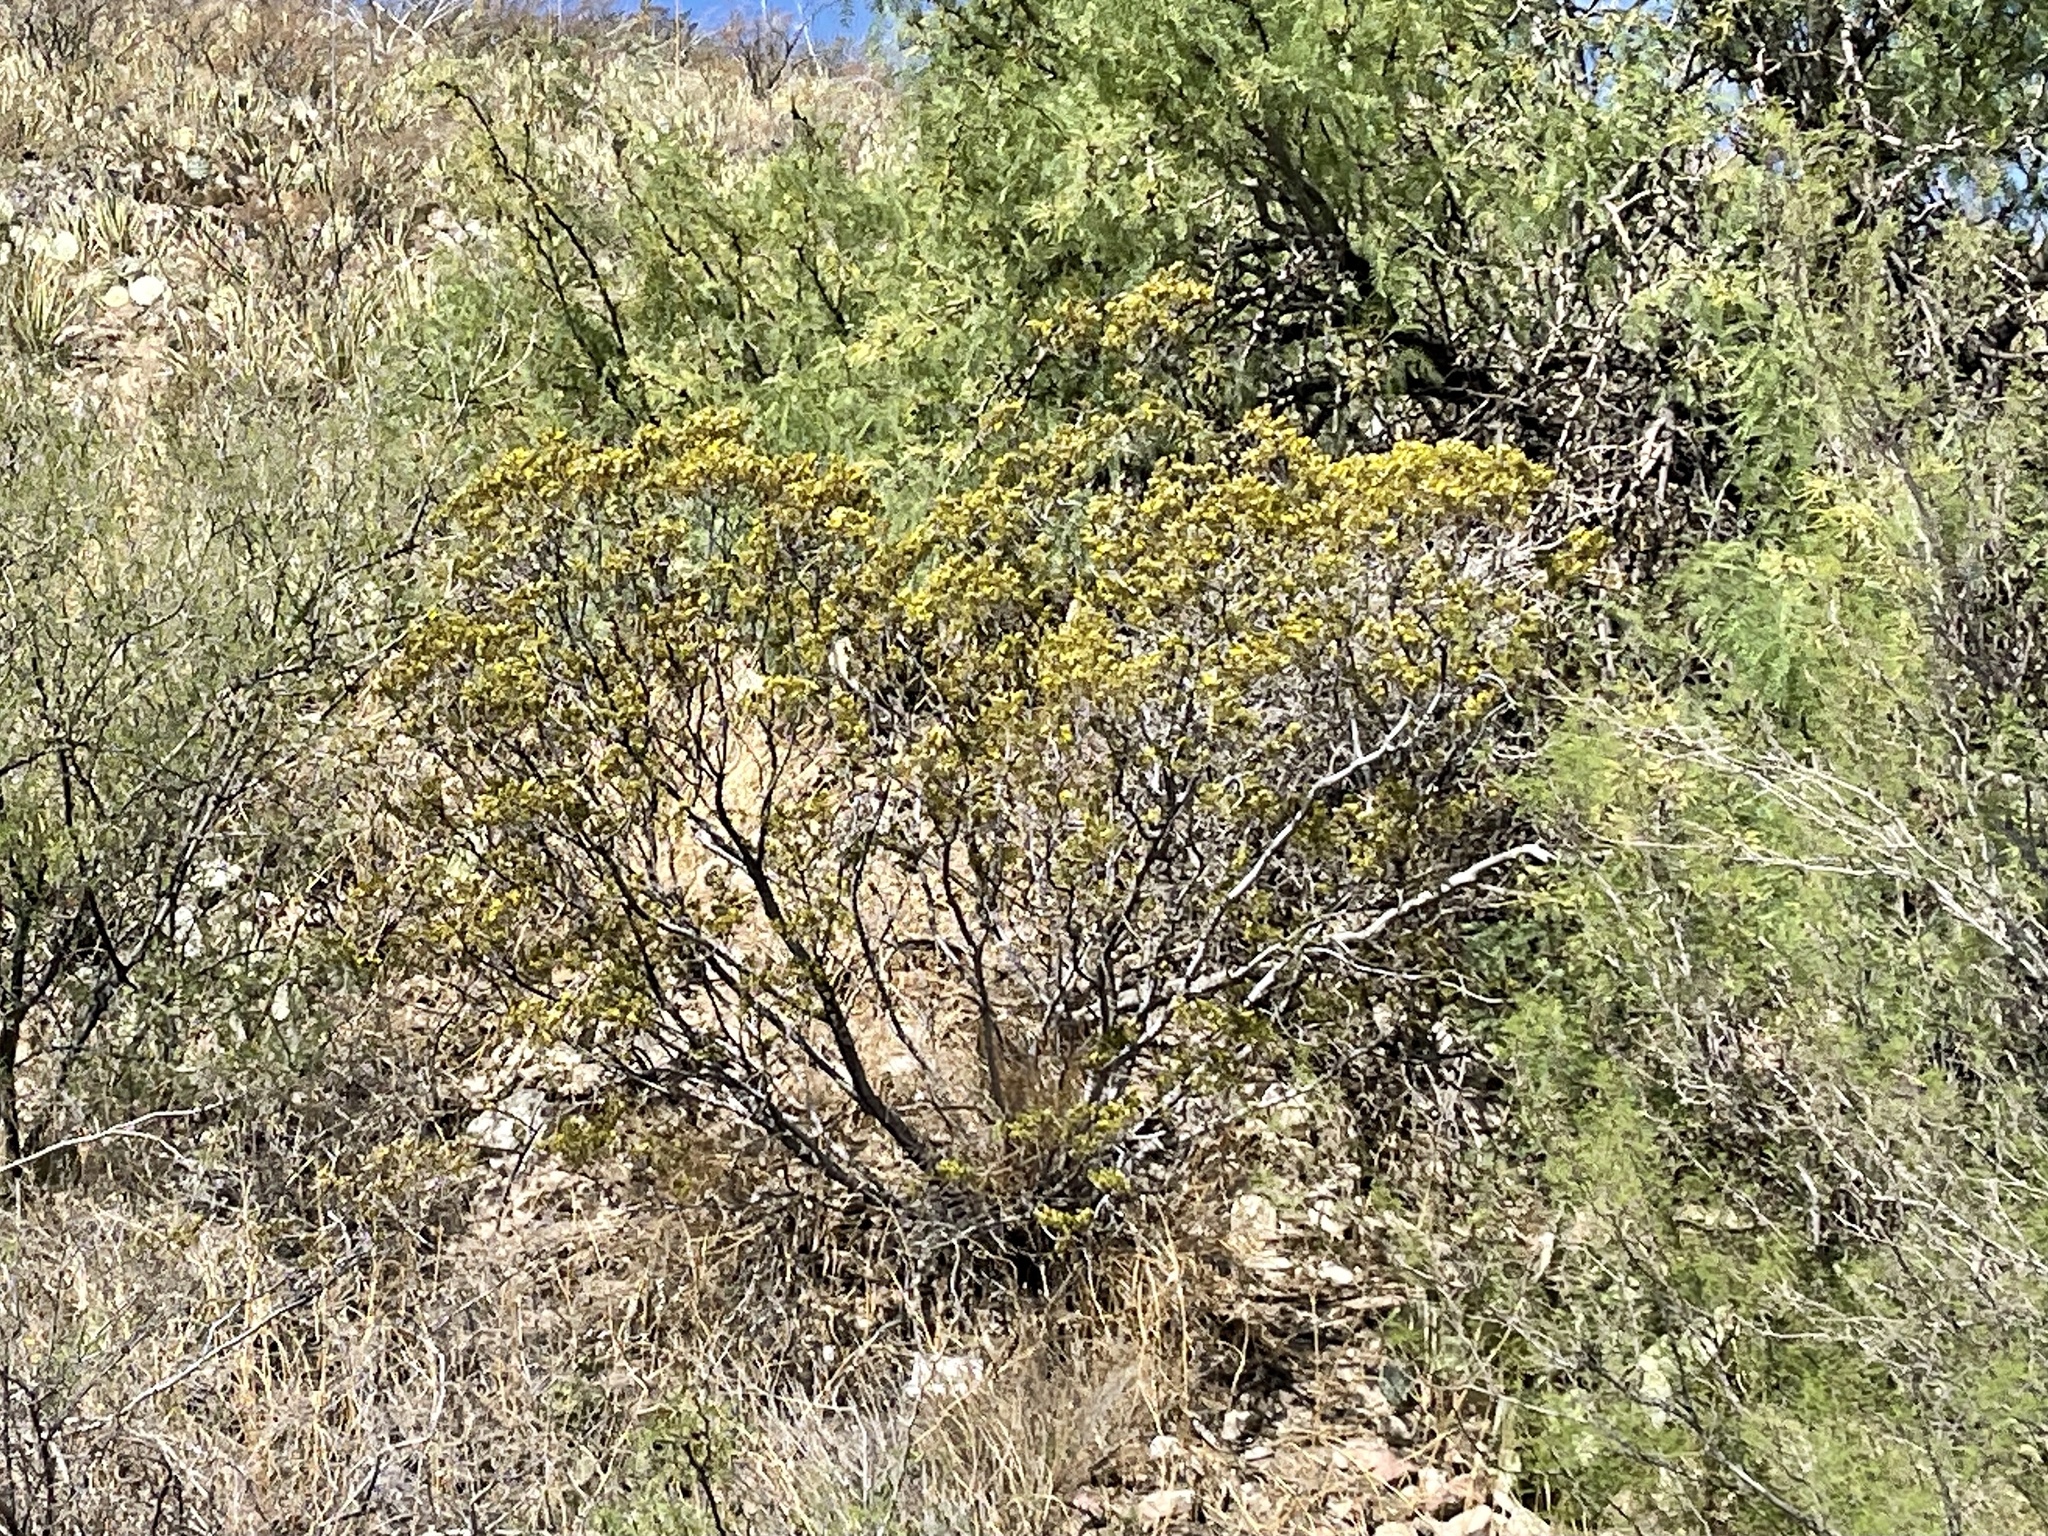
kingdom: Plantae
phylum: Tracheophyta
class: Magnoliopsida
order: Zygophyllales
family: Zygophyllaceae
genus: Larrea
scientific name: Larrea tridentata
